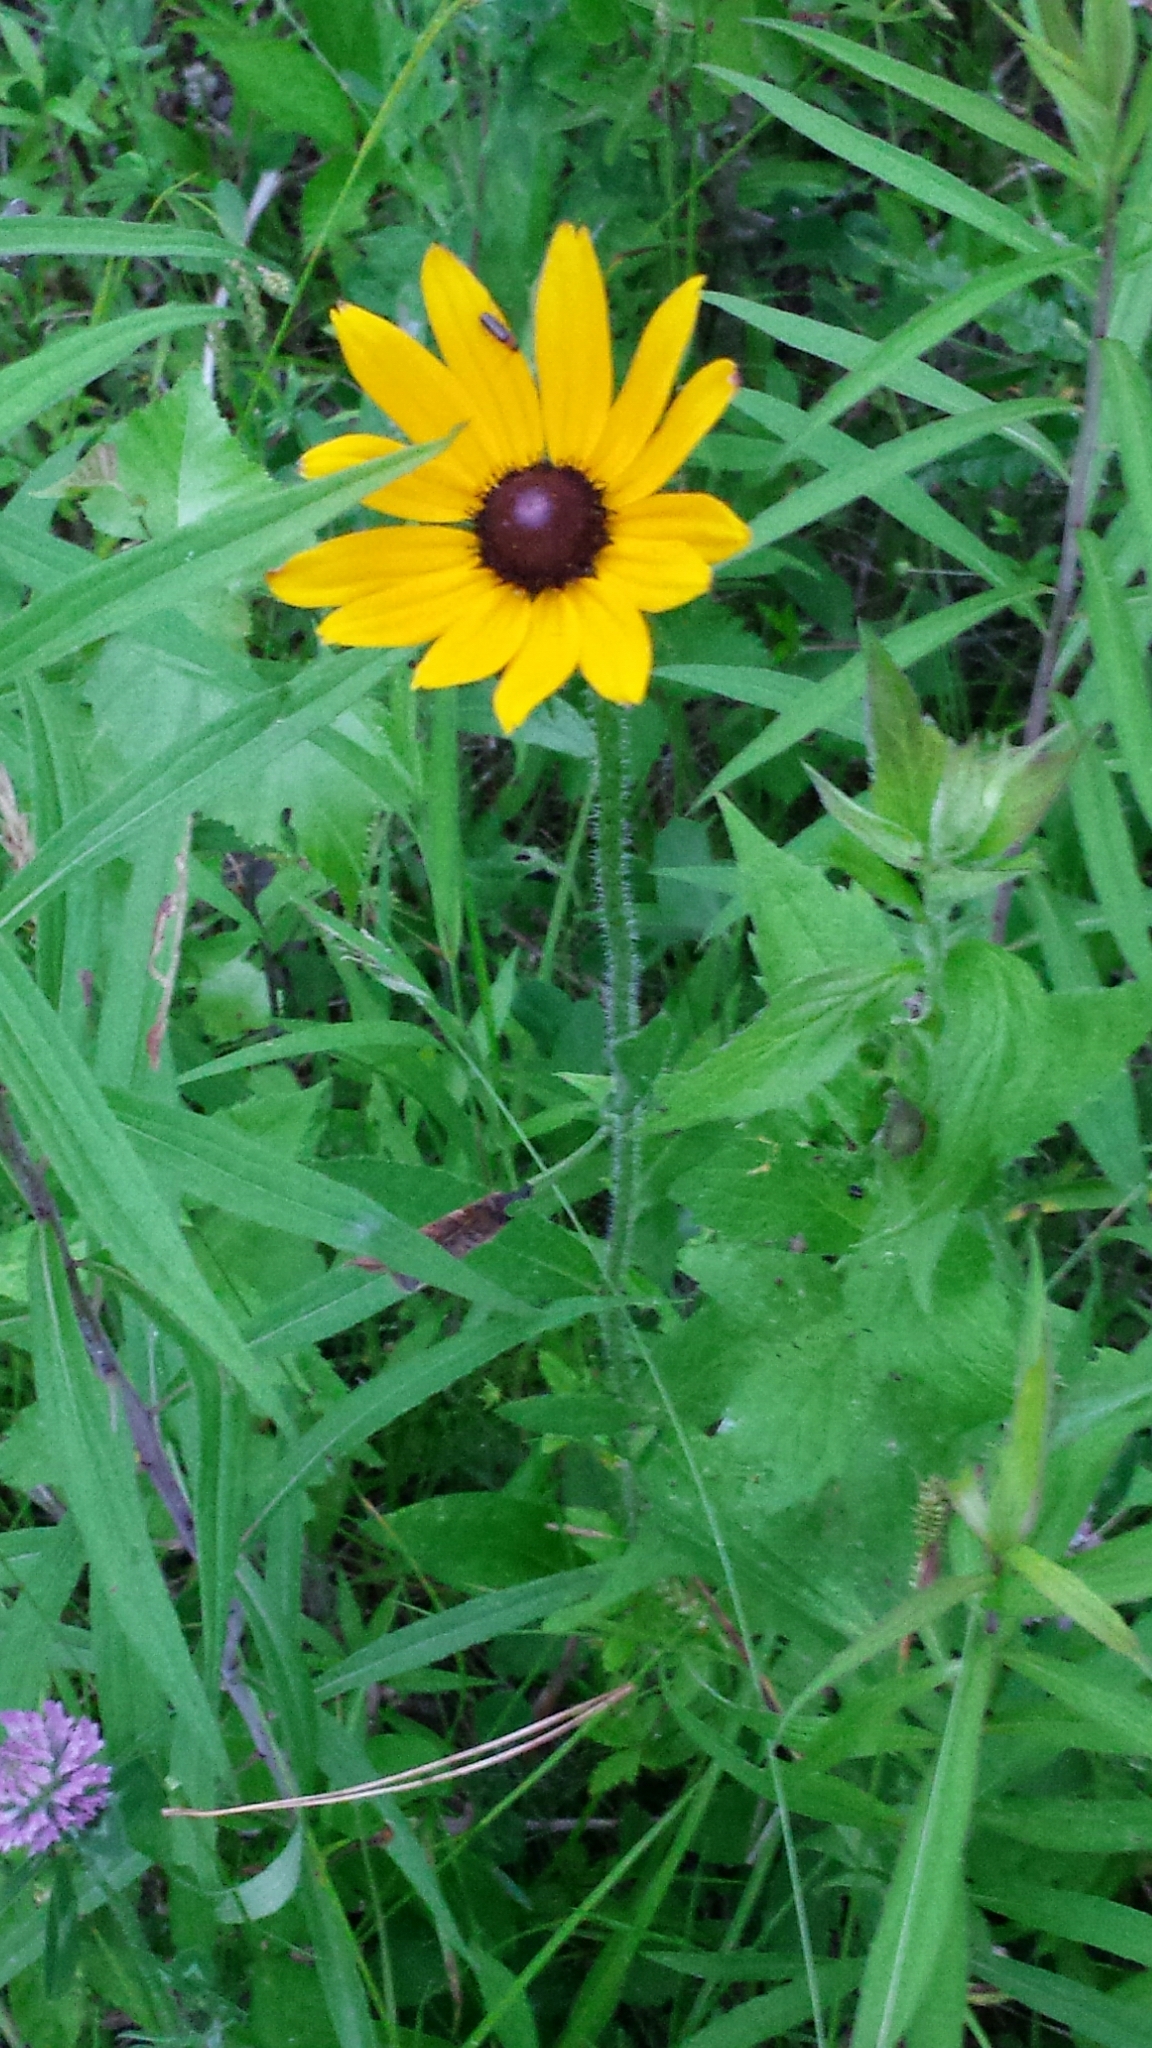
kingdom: Plantae
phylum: Tracheophyta
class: Magnoliopsida
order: Asterales
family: Asteraceae
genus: Rudbeckia
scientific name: Rudbeckia hirta
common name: Black-eyed-susan
